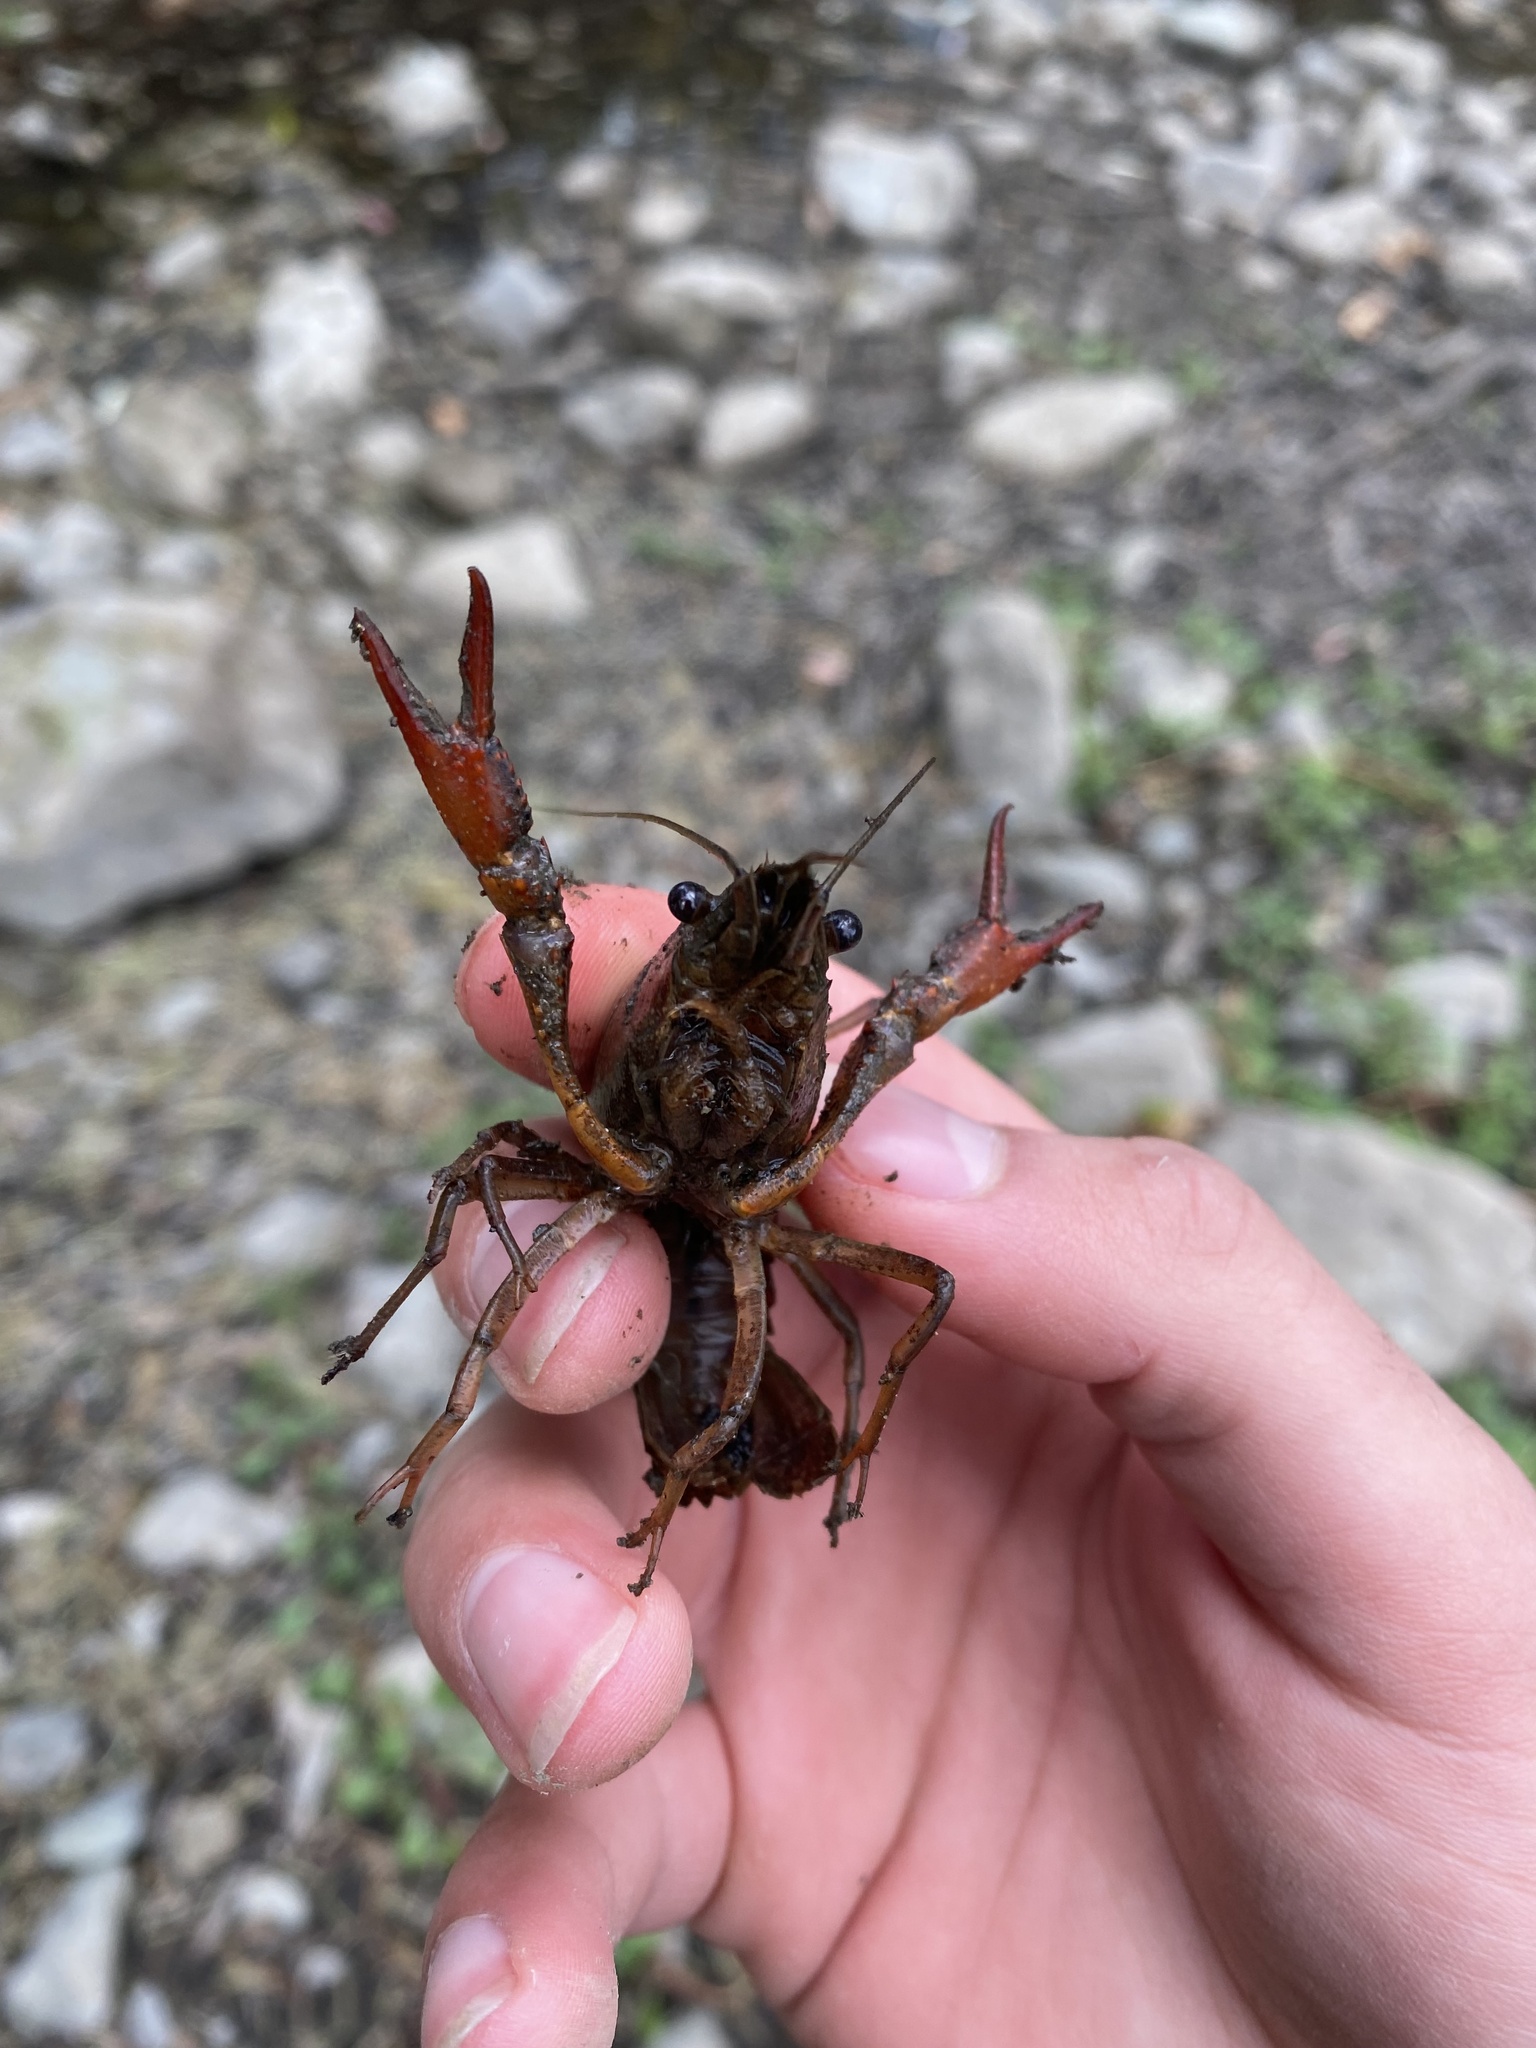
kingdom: Animalia
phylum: Arthropoda
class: Malacostraca
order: Decapoda
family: Cambaridae
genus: Procambarus
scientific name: Procambarus clarkii
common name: Red swamp crayfish
